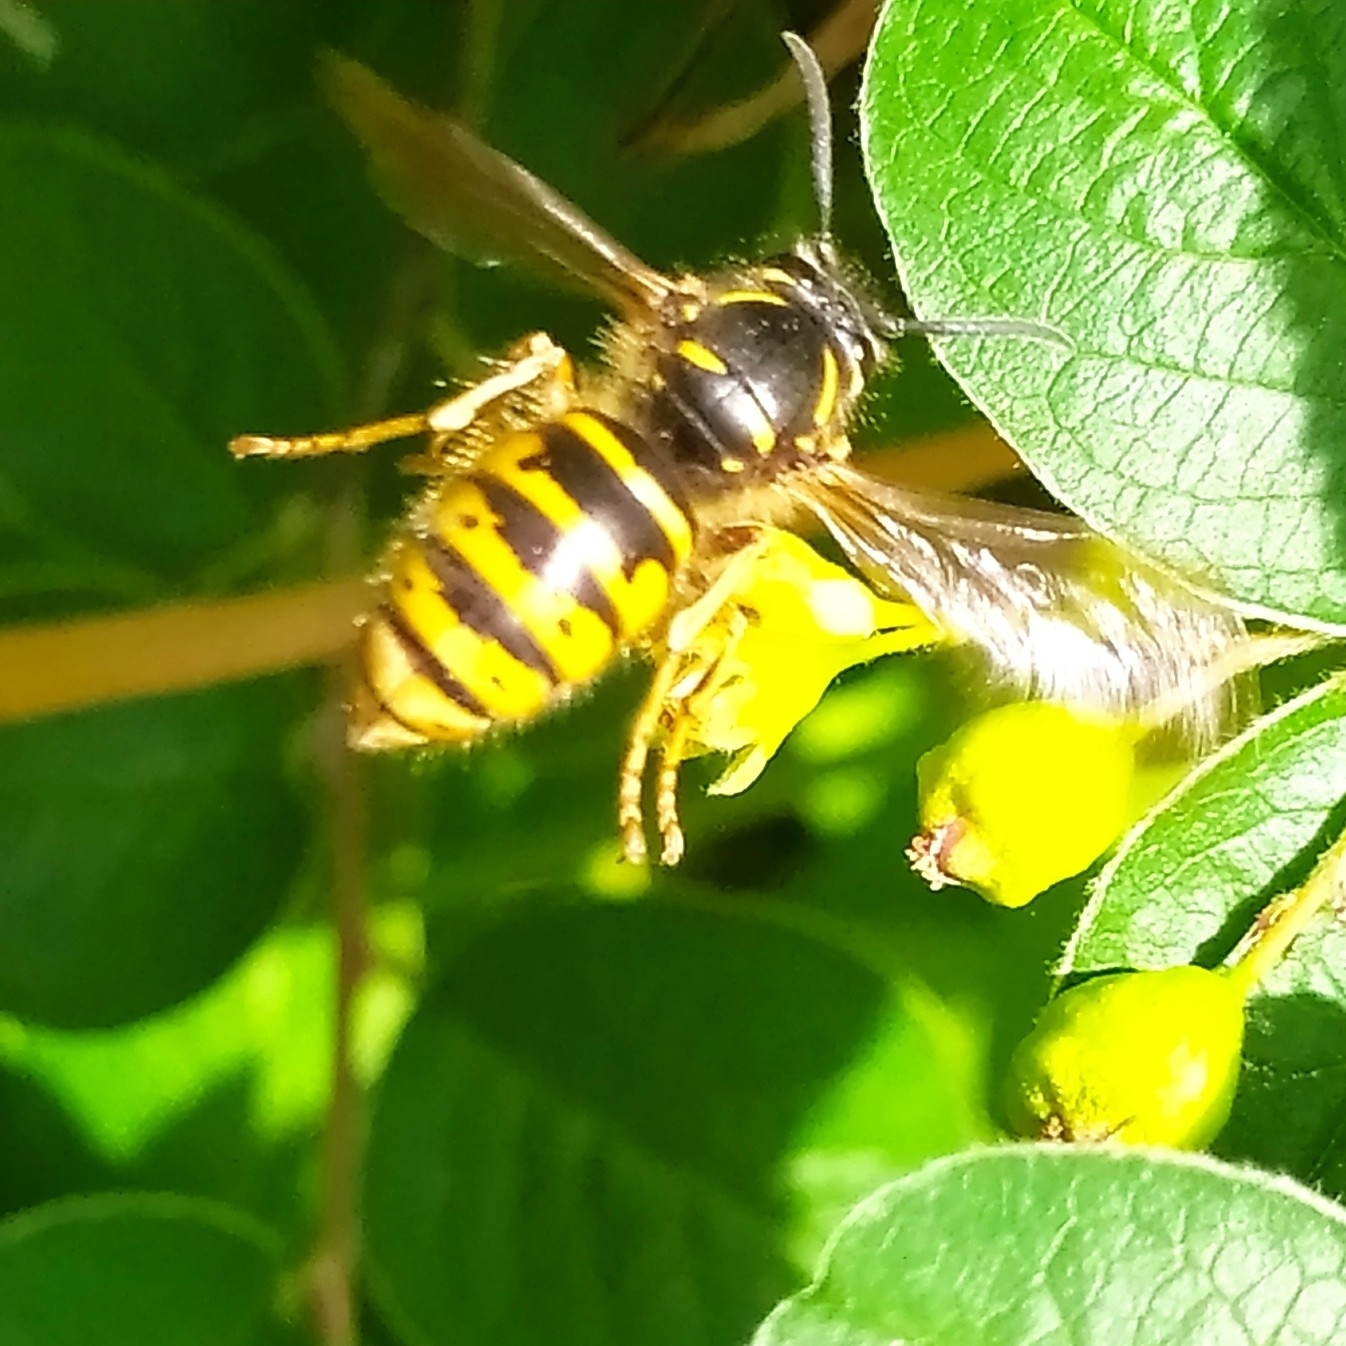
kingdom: Animalia
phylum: Arthropoda
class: Insecta
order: Hymenoptera
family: Vespidae
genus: Dolichovespula
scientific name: Dolichovespula saxonica
